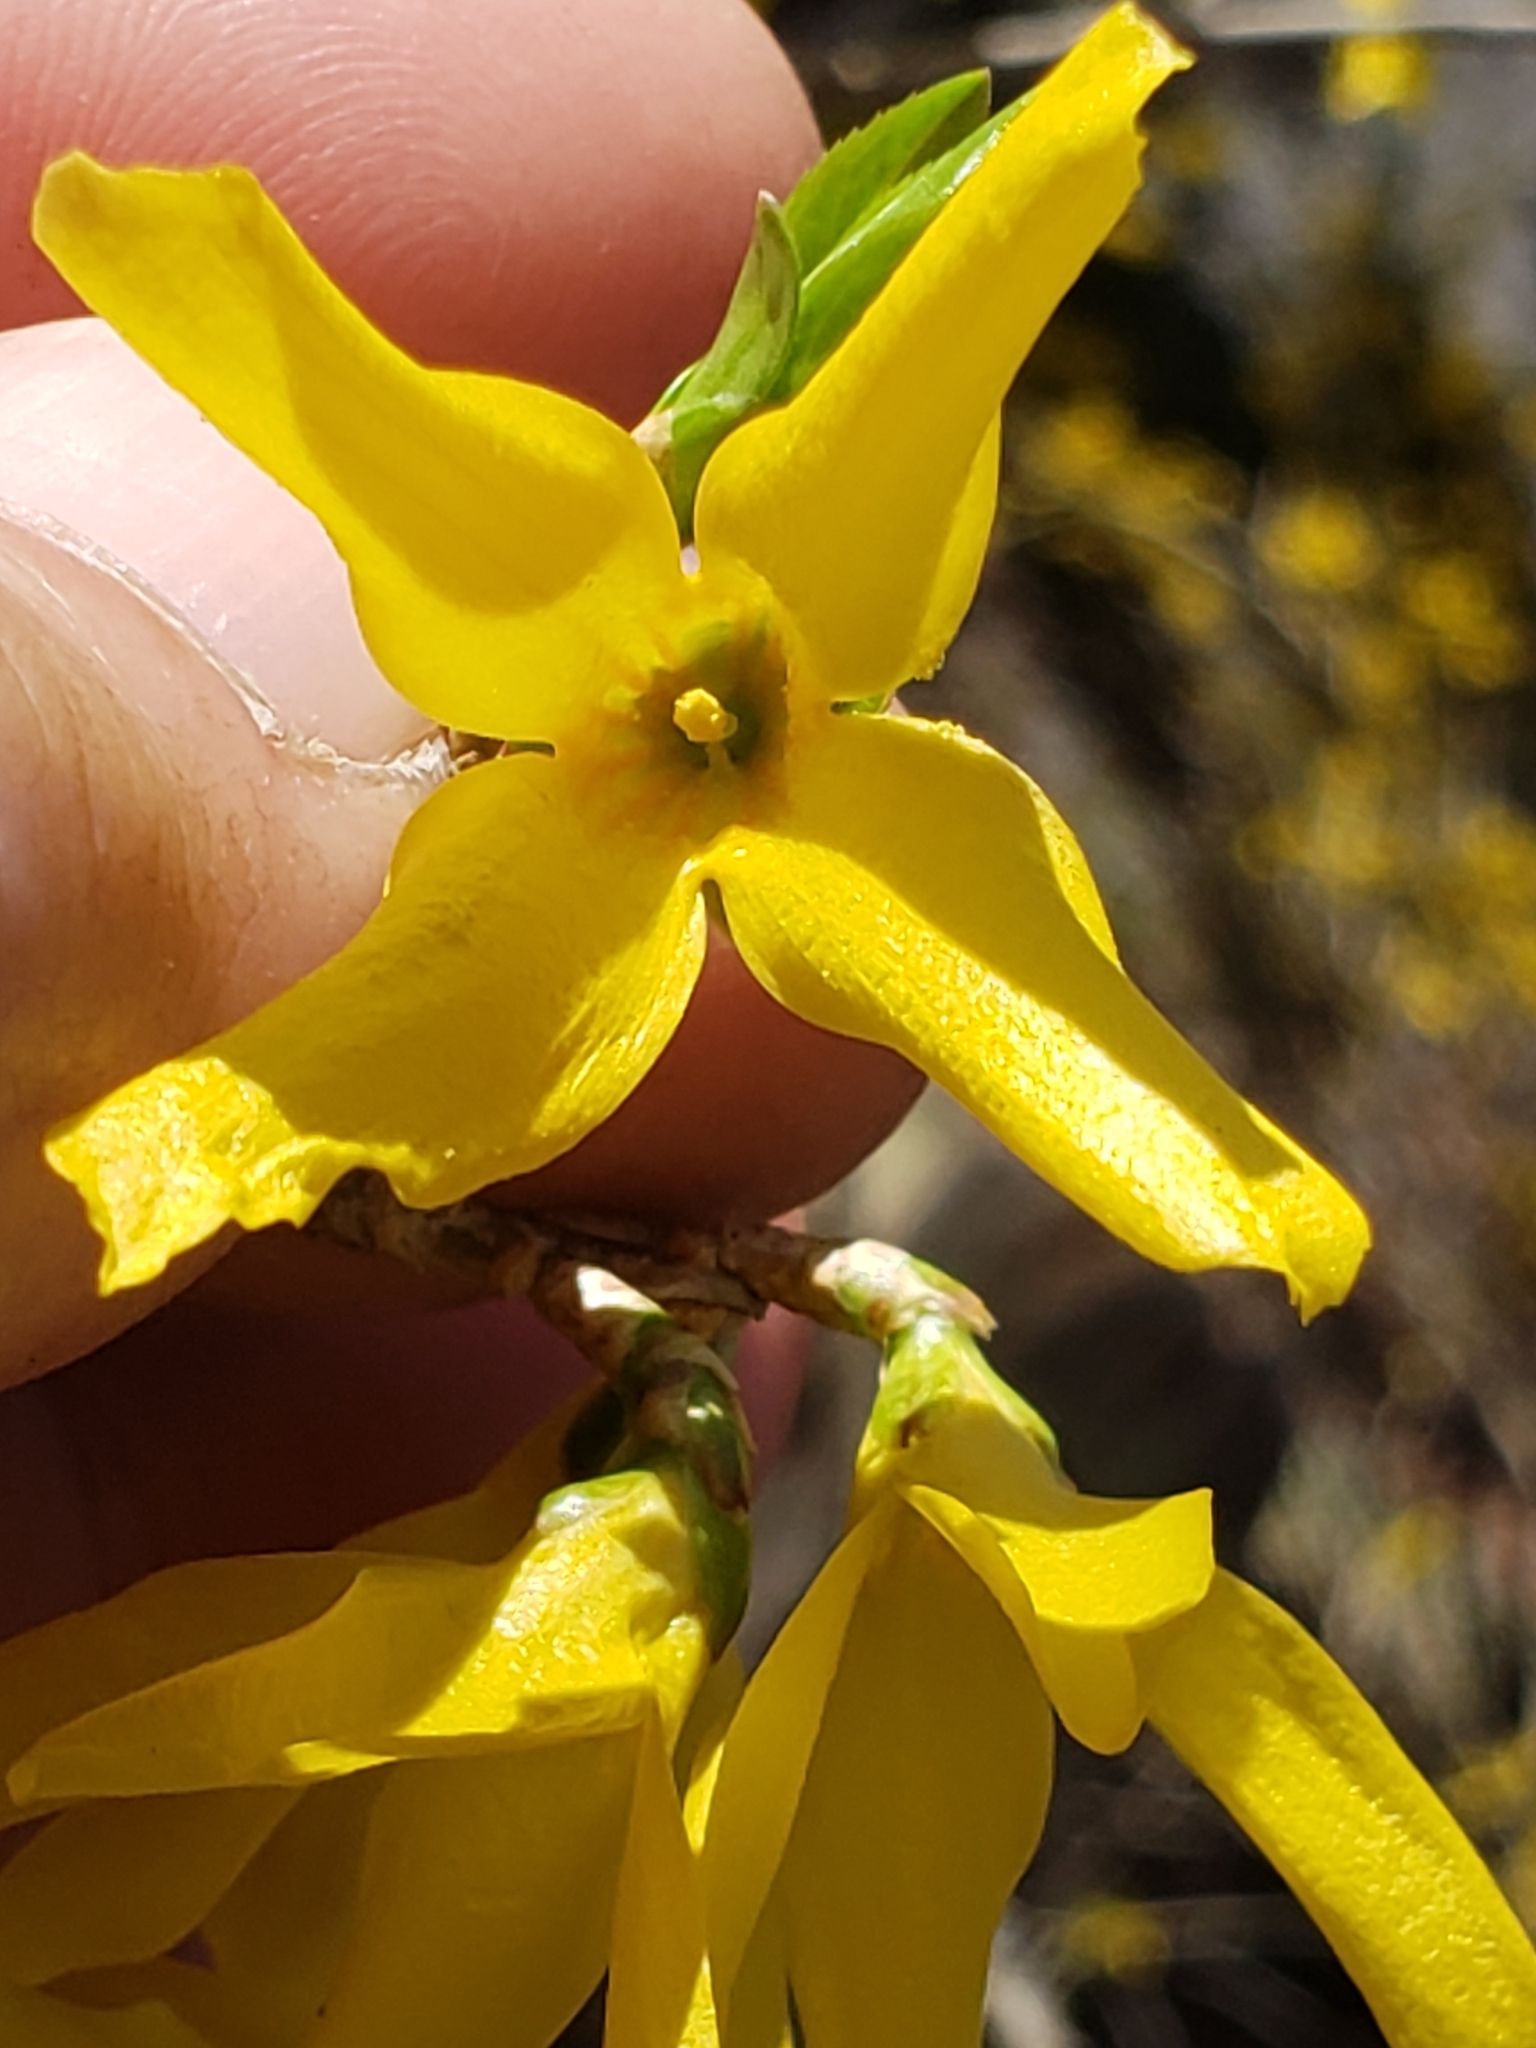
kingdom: Plantae
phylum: Tracheophyta
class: Magnoliopsida
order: Lamiales
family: Oleaceae
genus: Forsythia
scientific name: Forsythia intermedia
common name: Forsythia
